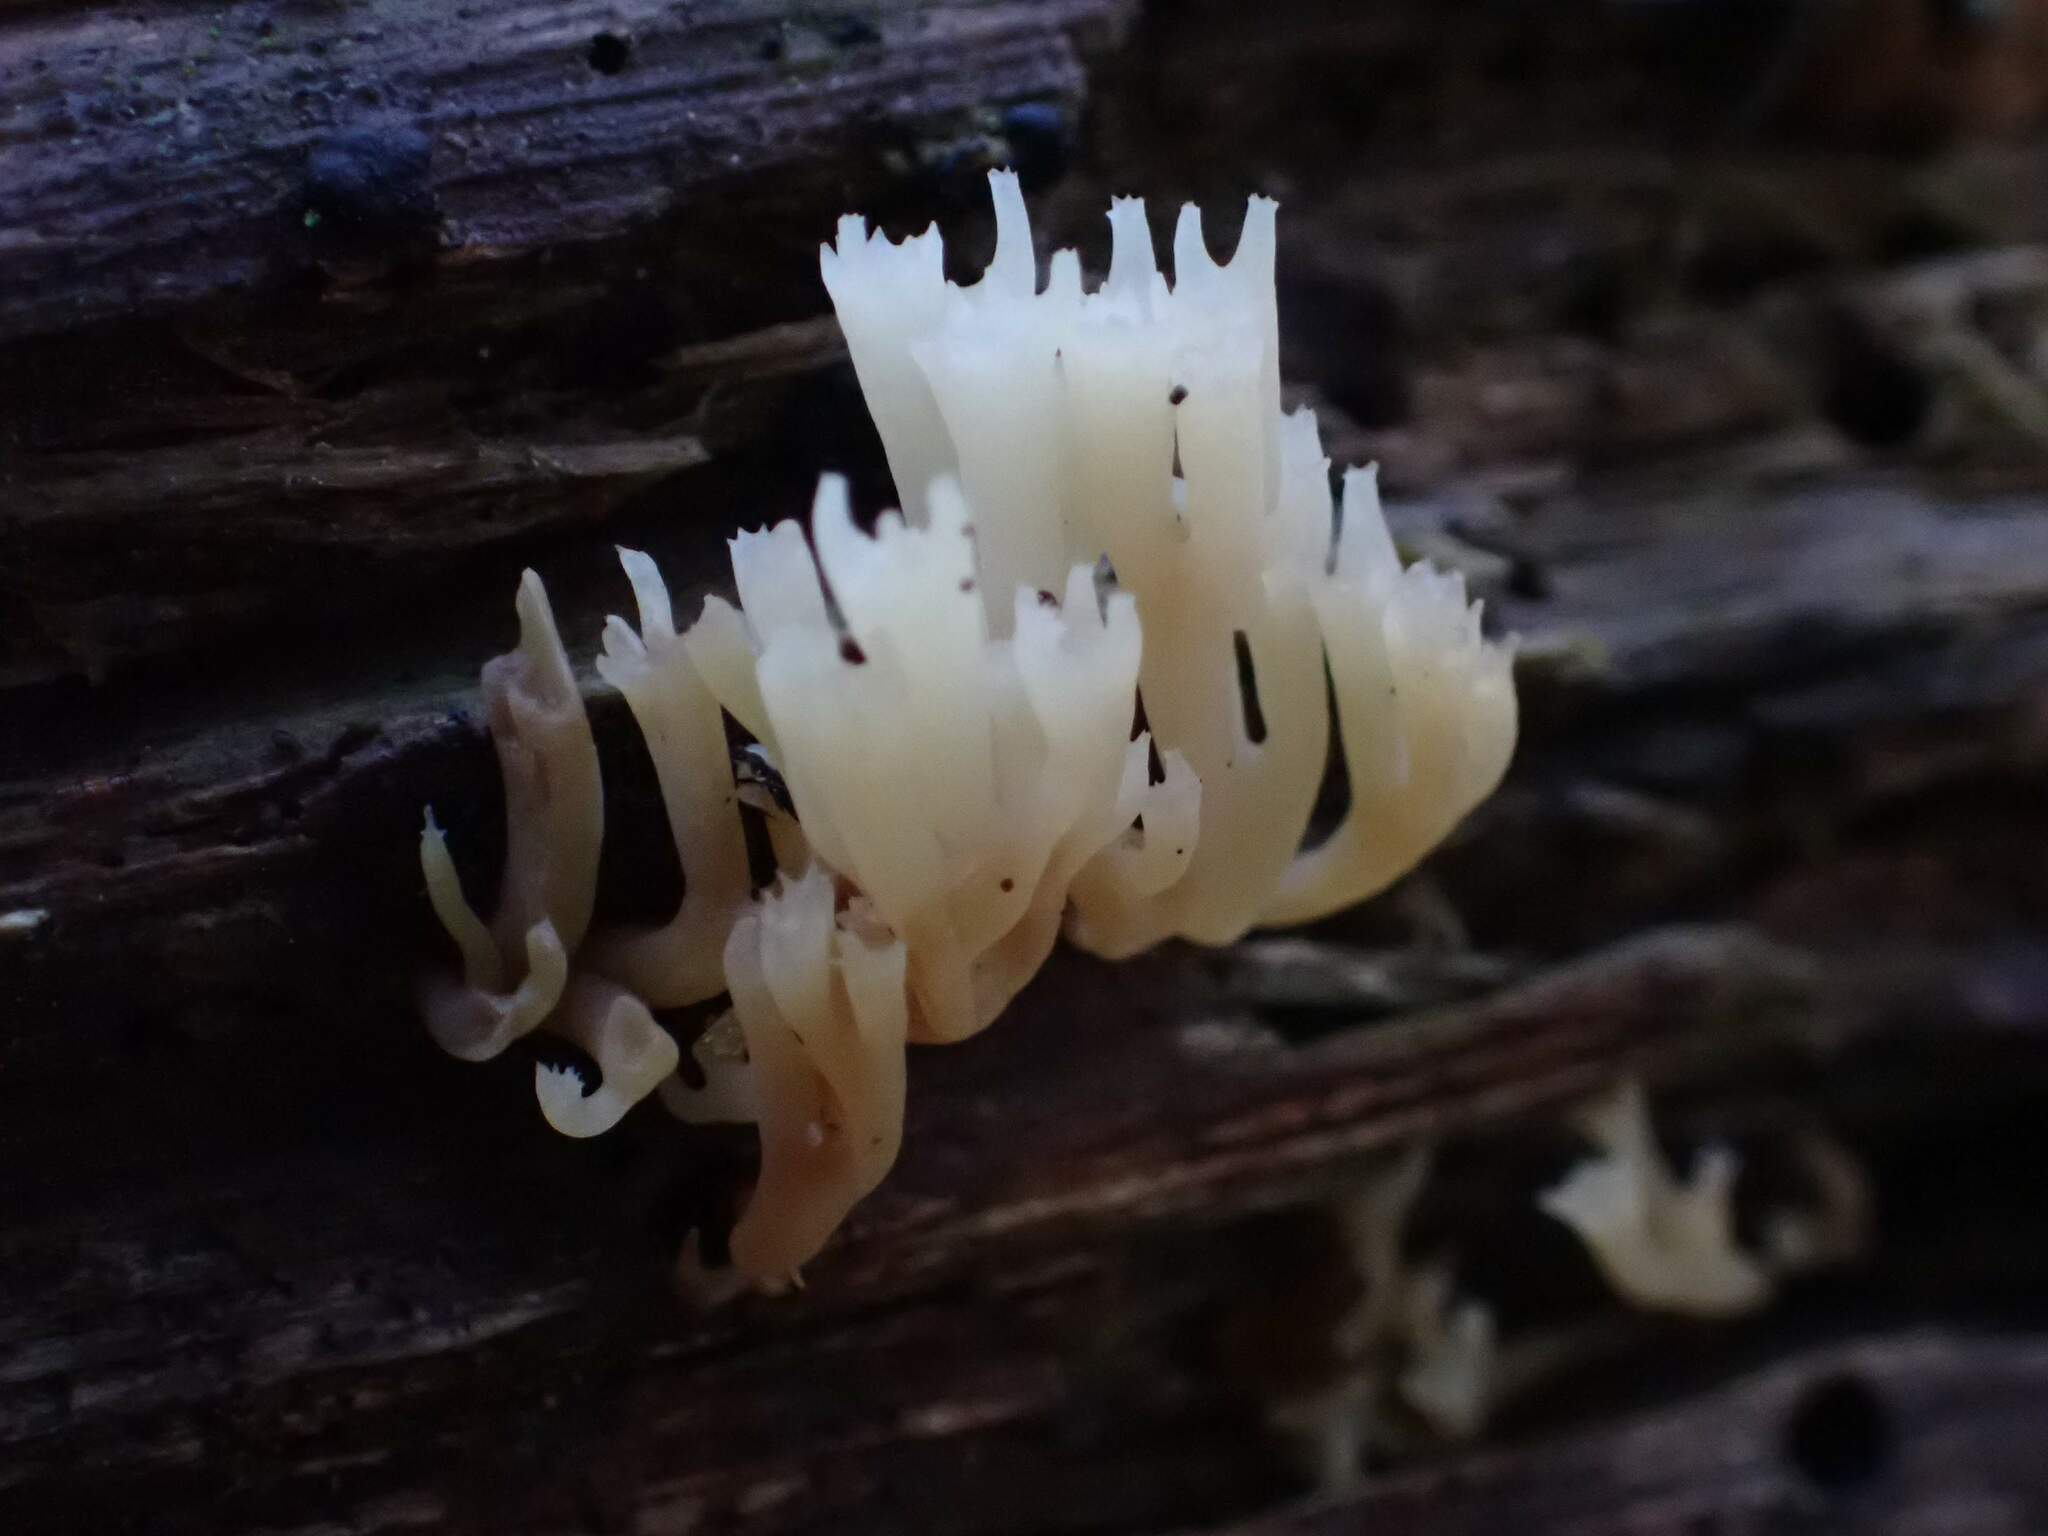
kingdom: Fungi
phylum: Basidiomycota
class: Agaricomycetes
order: Russulales
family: Auriscalpiaceae
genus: Artomyces
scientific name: Artomyces pyxidatus
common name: Crown-tipped coral fungus
